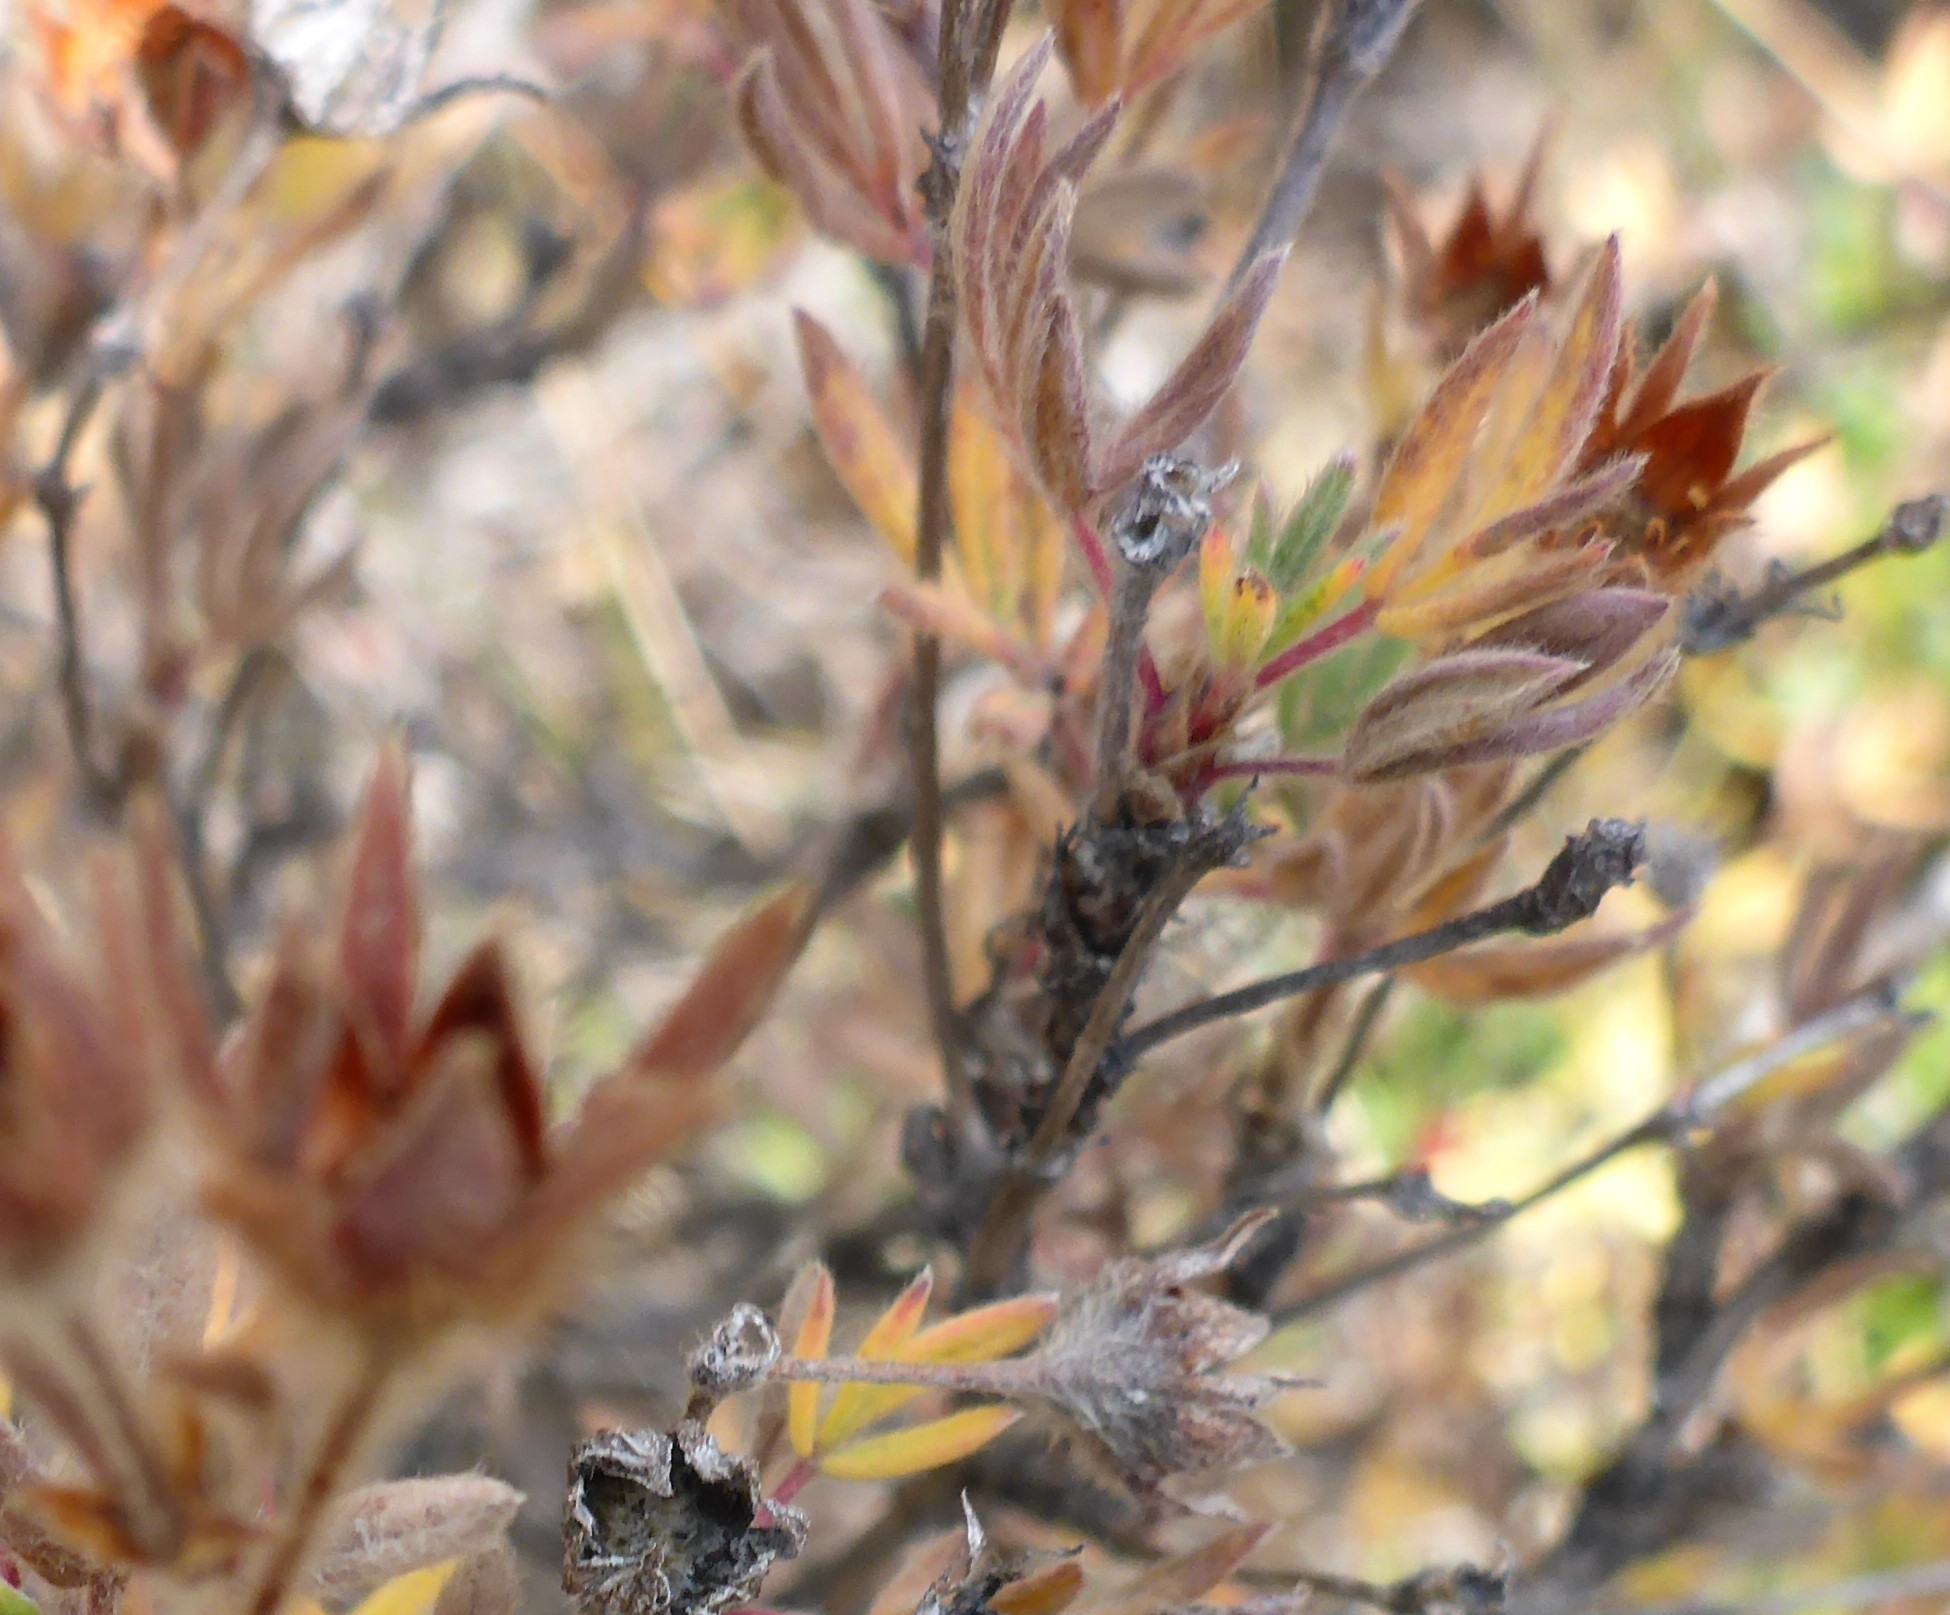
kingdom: Plantae
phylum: Tracheophyta
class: Magnoliopsida
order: Rosales
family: Rosaceae
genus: Dasiphora
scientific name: Dasiphora fruticosa
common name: Shrubby cinquefoil
